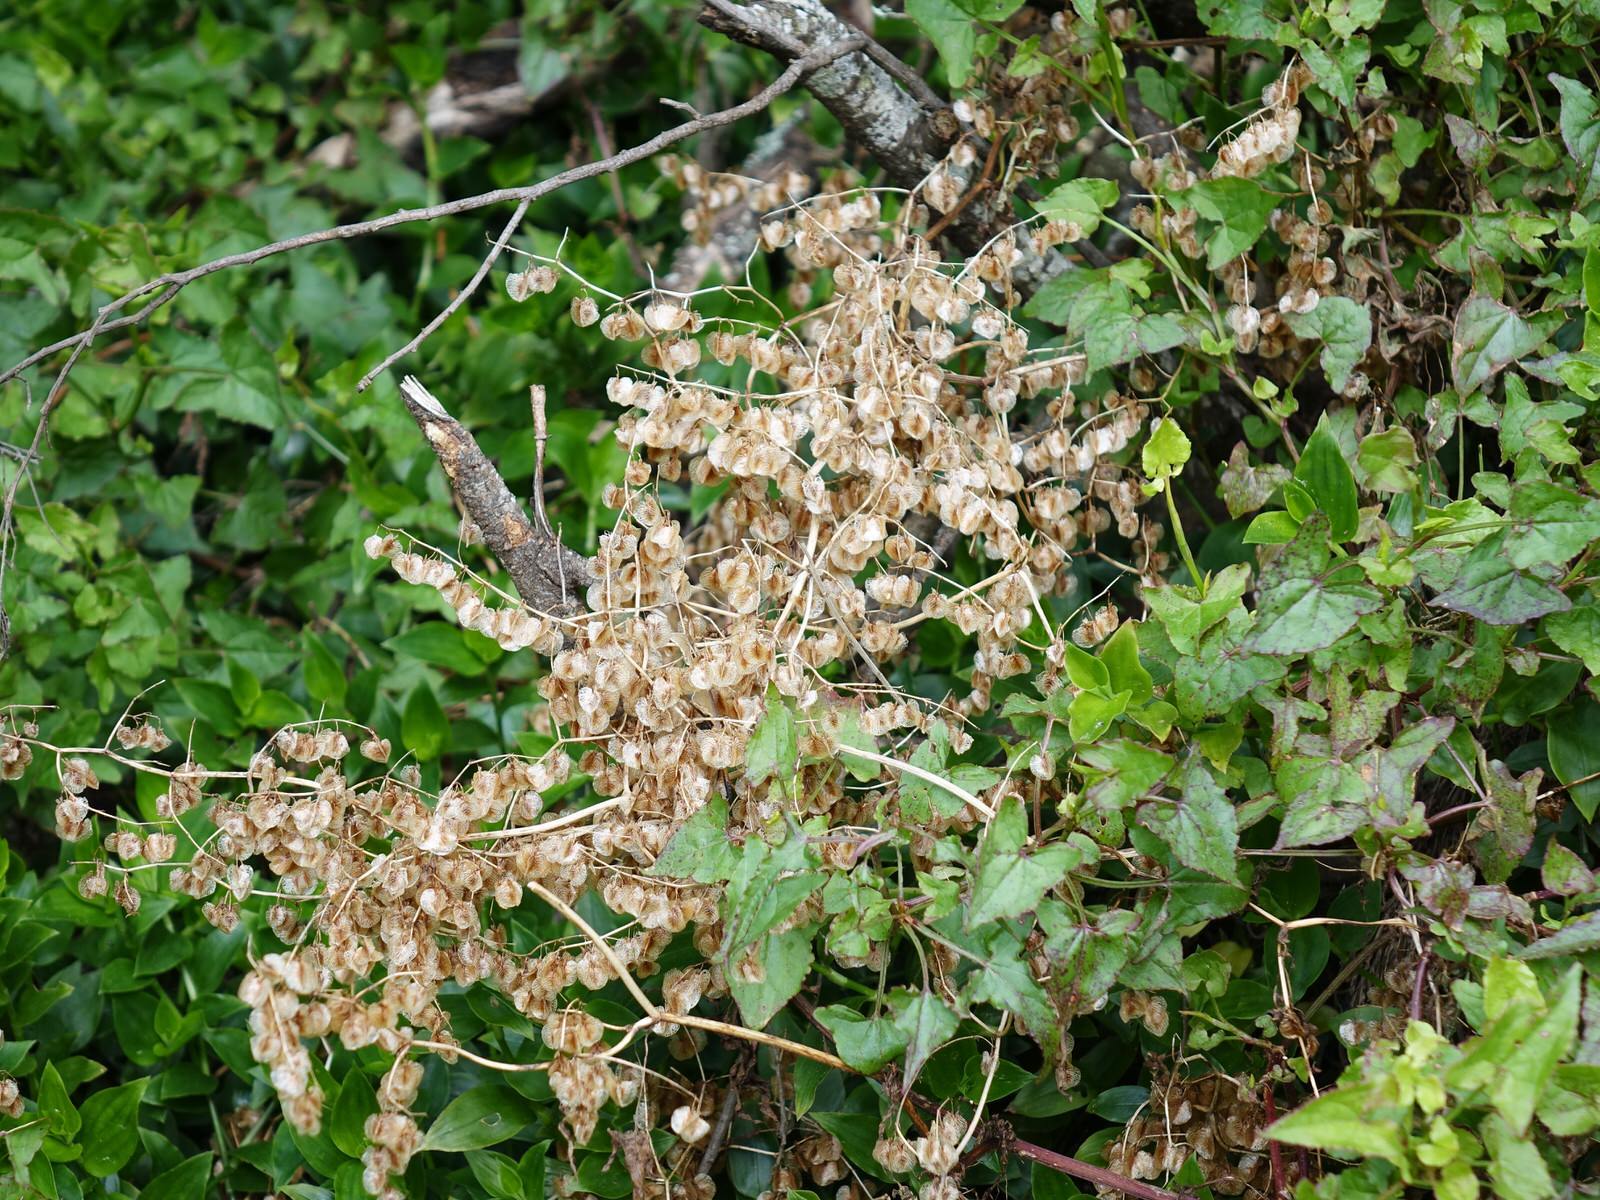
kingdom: Plantae
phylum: Tracheophyta
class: Magnoliopsida
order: Caryophyllales
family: Polygonaceae
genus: Rumex
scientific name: Rumex sagittatus
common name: Climbing dock
